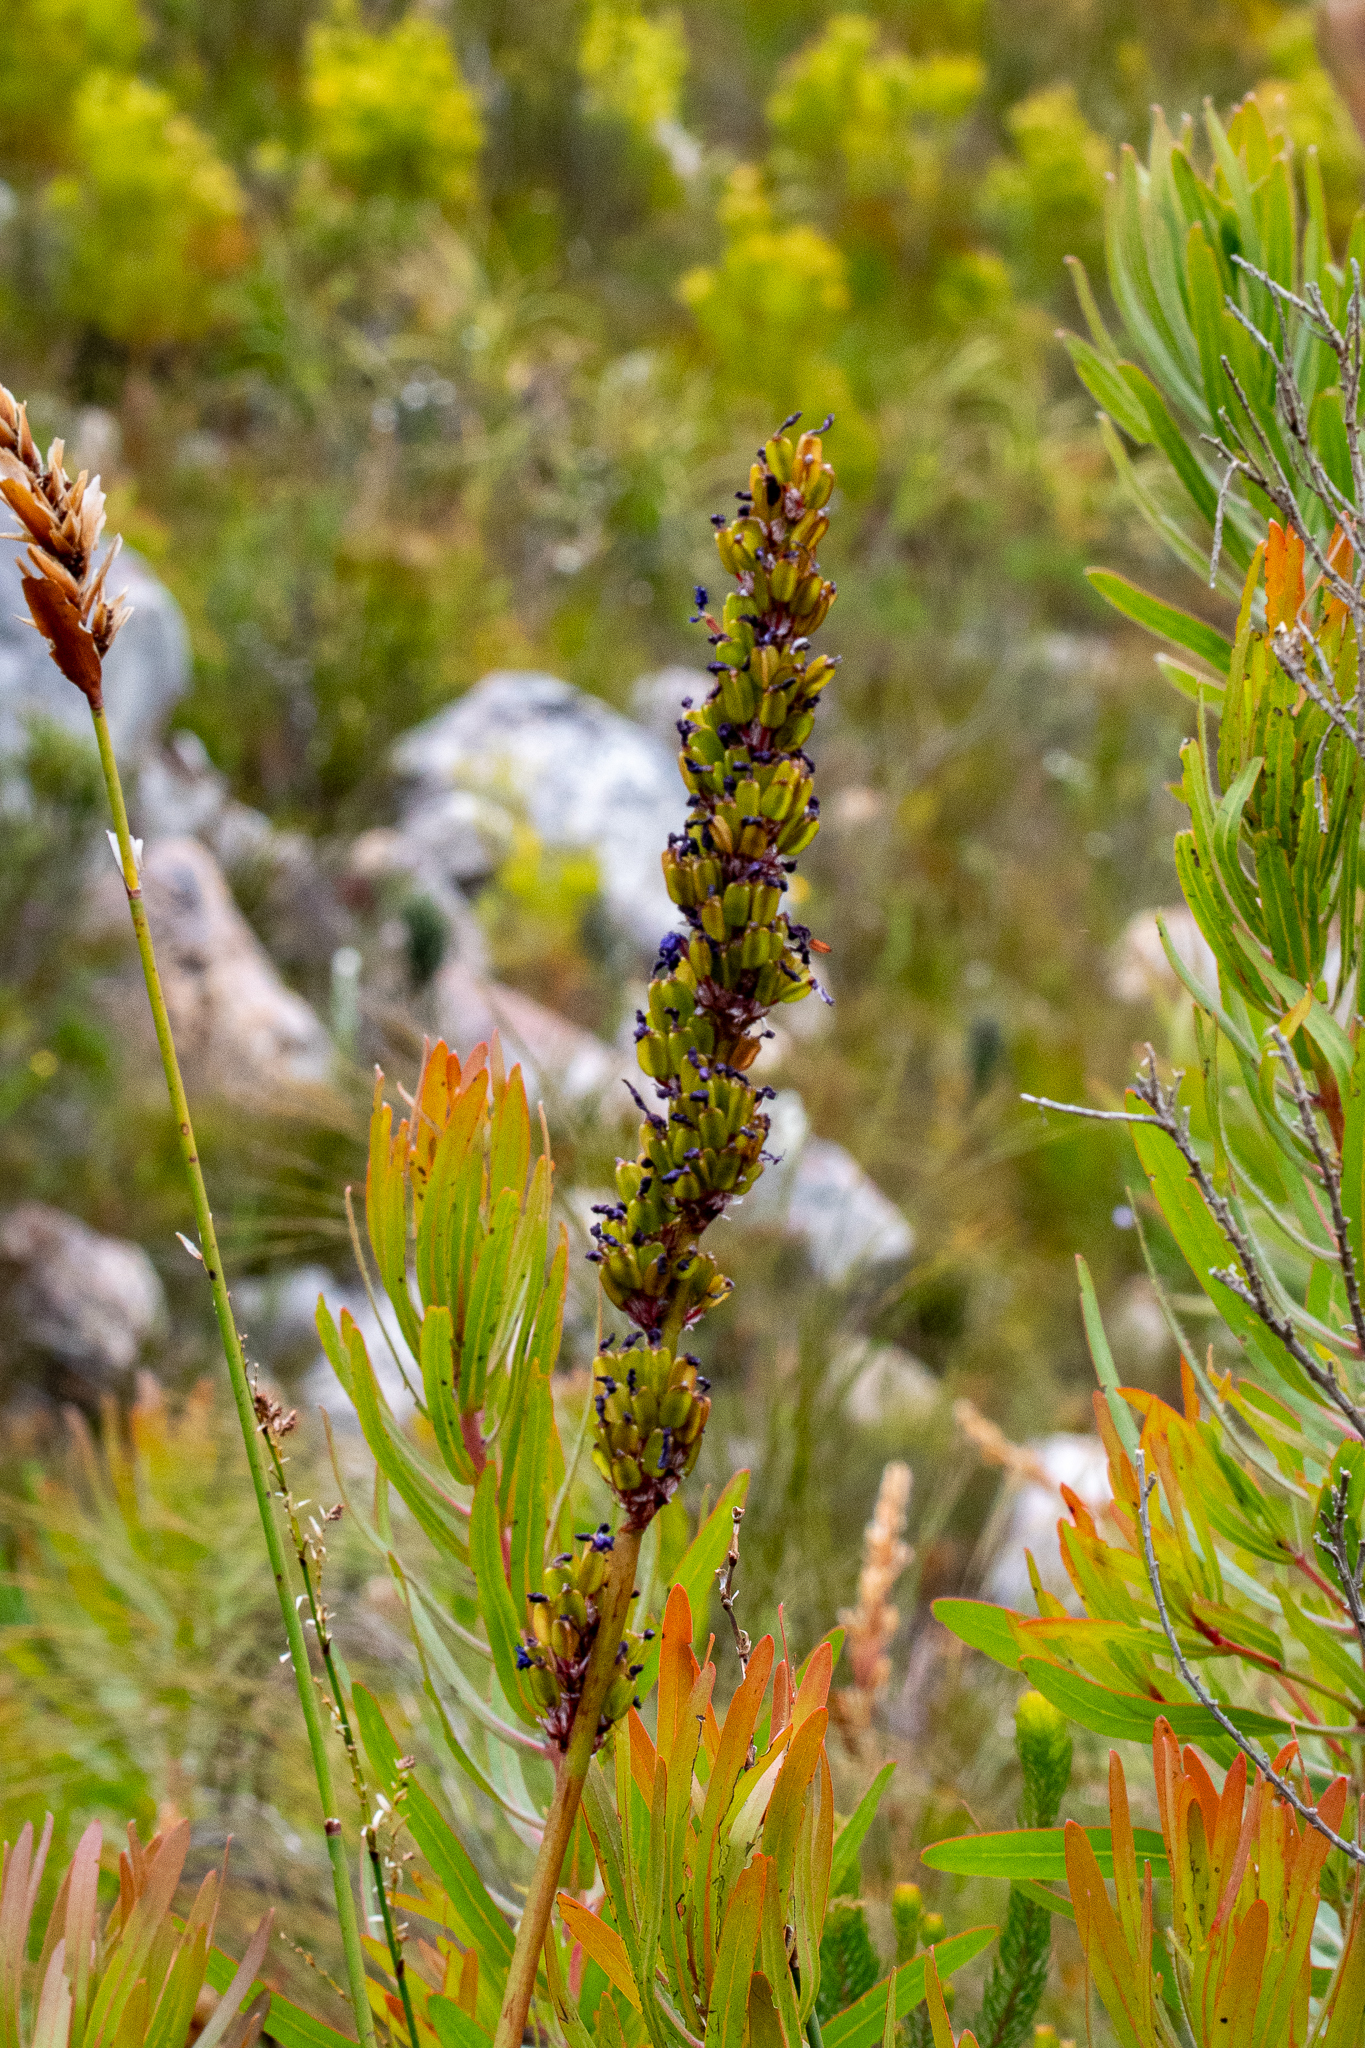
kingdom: Plantae
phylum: Tracheophyta
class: Liliopsida
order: Asparagales
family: Iridaceae
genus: Aristea
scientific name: Aristea capitata
